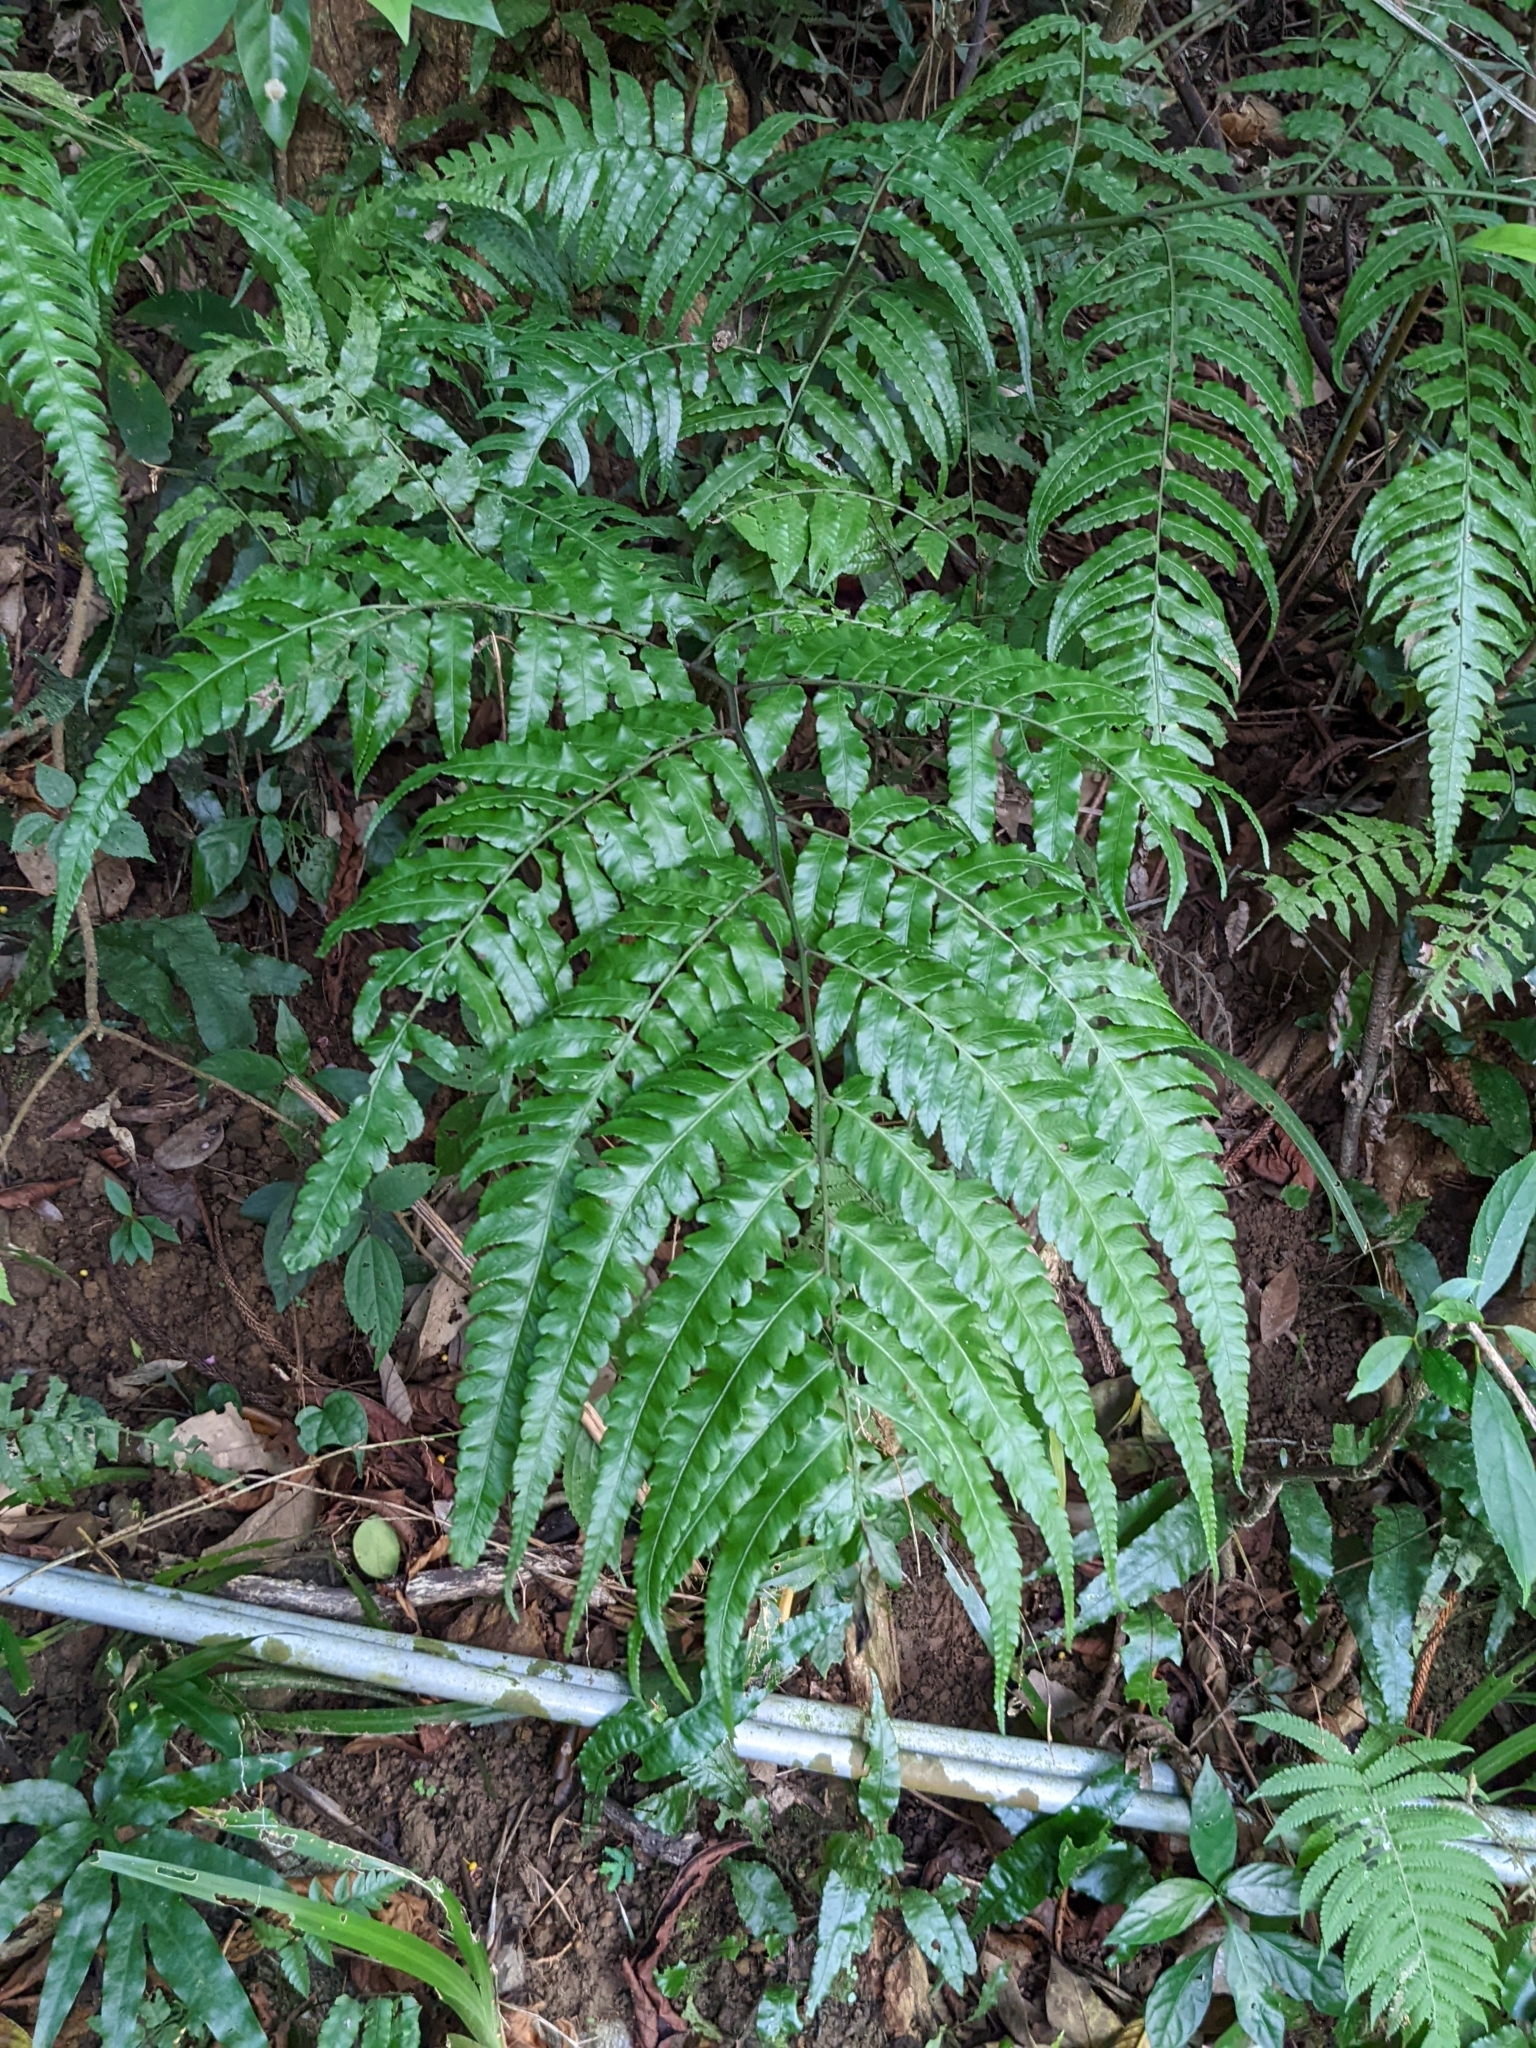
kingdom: Plantae
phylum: Tracheophyta
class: Polypodiopsida
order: Polypodiales
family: Athyriaceae
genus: Diplazium
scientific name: Diplazium dilatatum
